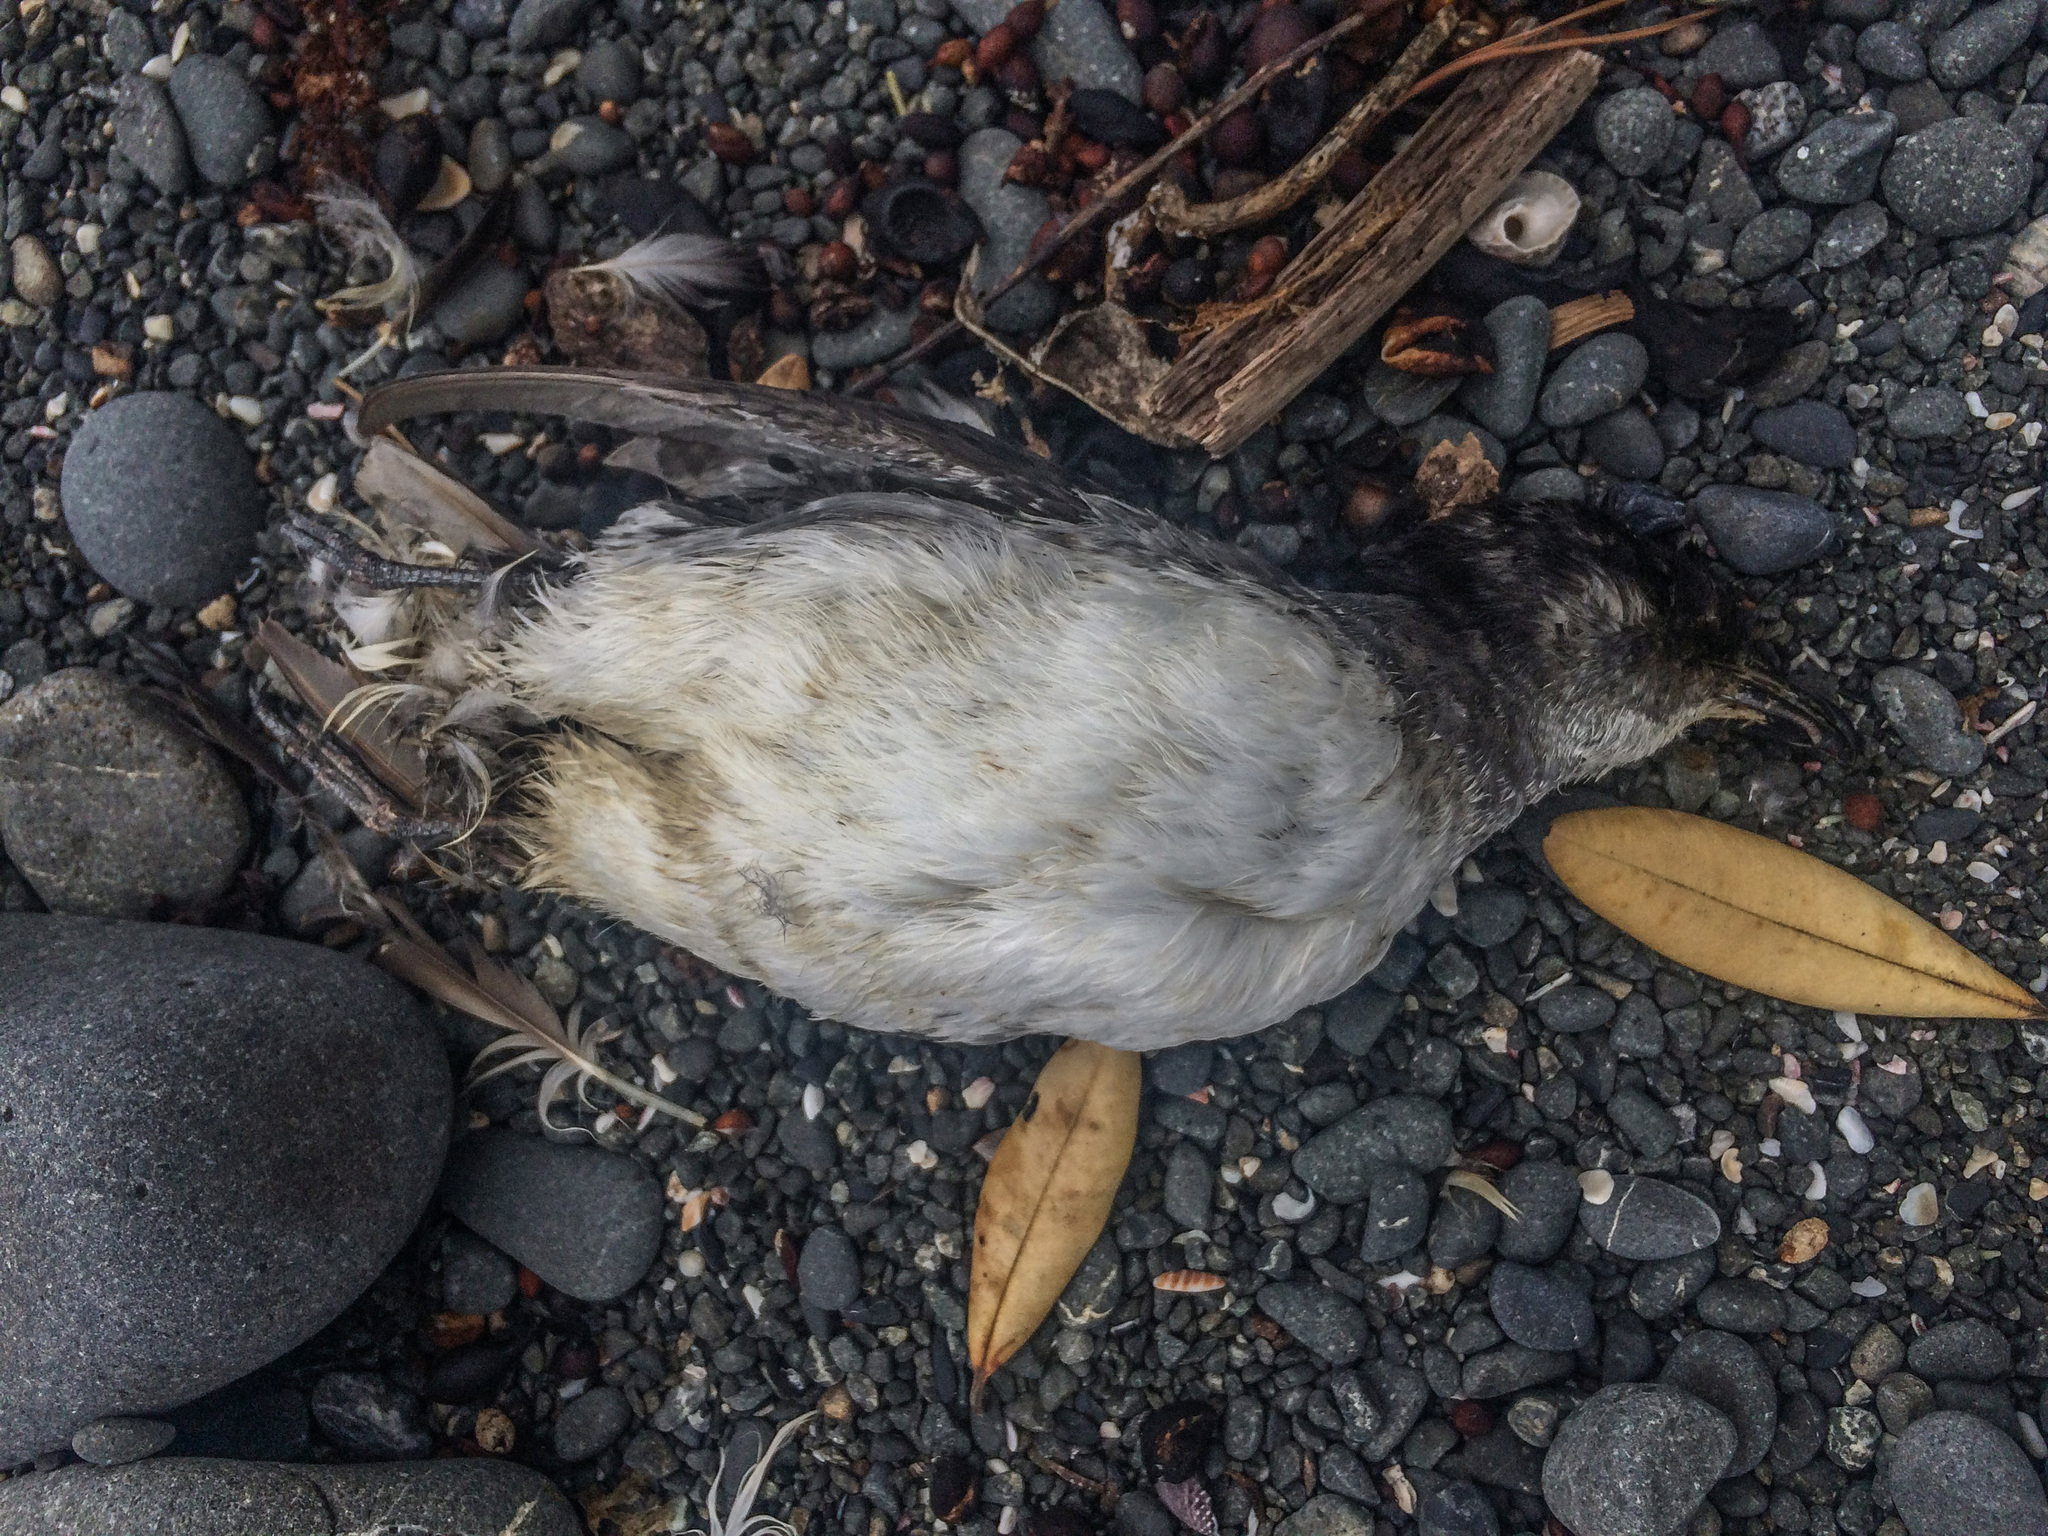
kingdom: Animalia
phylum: Chordata
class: Aves
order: Procellariiformes
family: Pelecanoididae
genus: Pelecanoides
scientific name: Pelecanoides urinatrix
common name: Common diving-petrel
